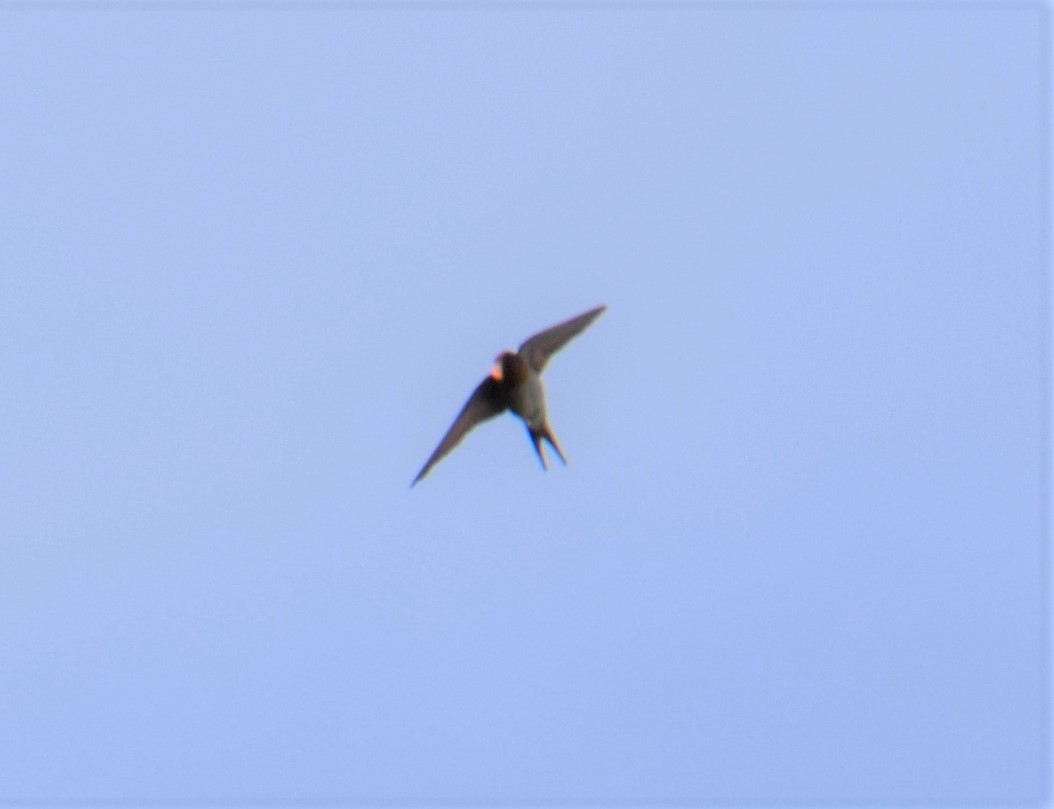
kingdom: Animalia
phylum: Chordata
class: Aves
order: Passeriformes
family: Hirundinidae
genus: Hirundo
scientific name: Hirundo neoxena
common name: Welcome swallow
